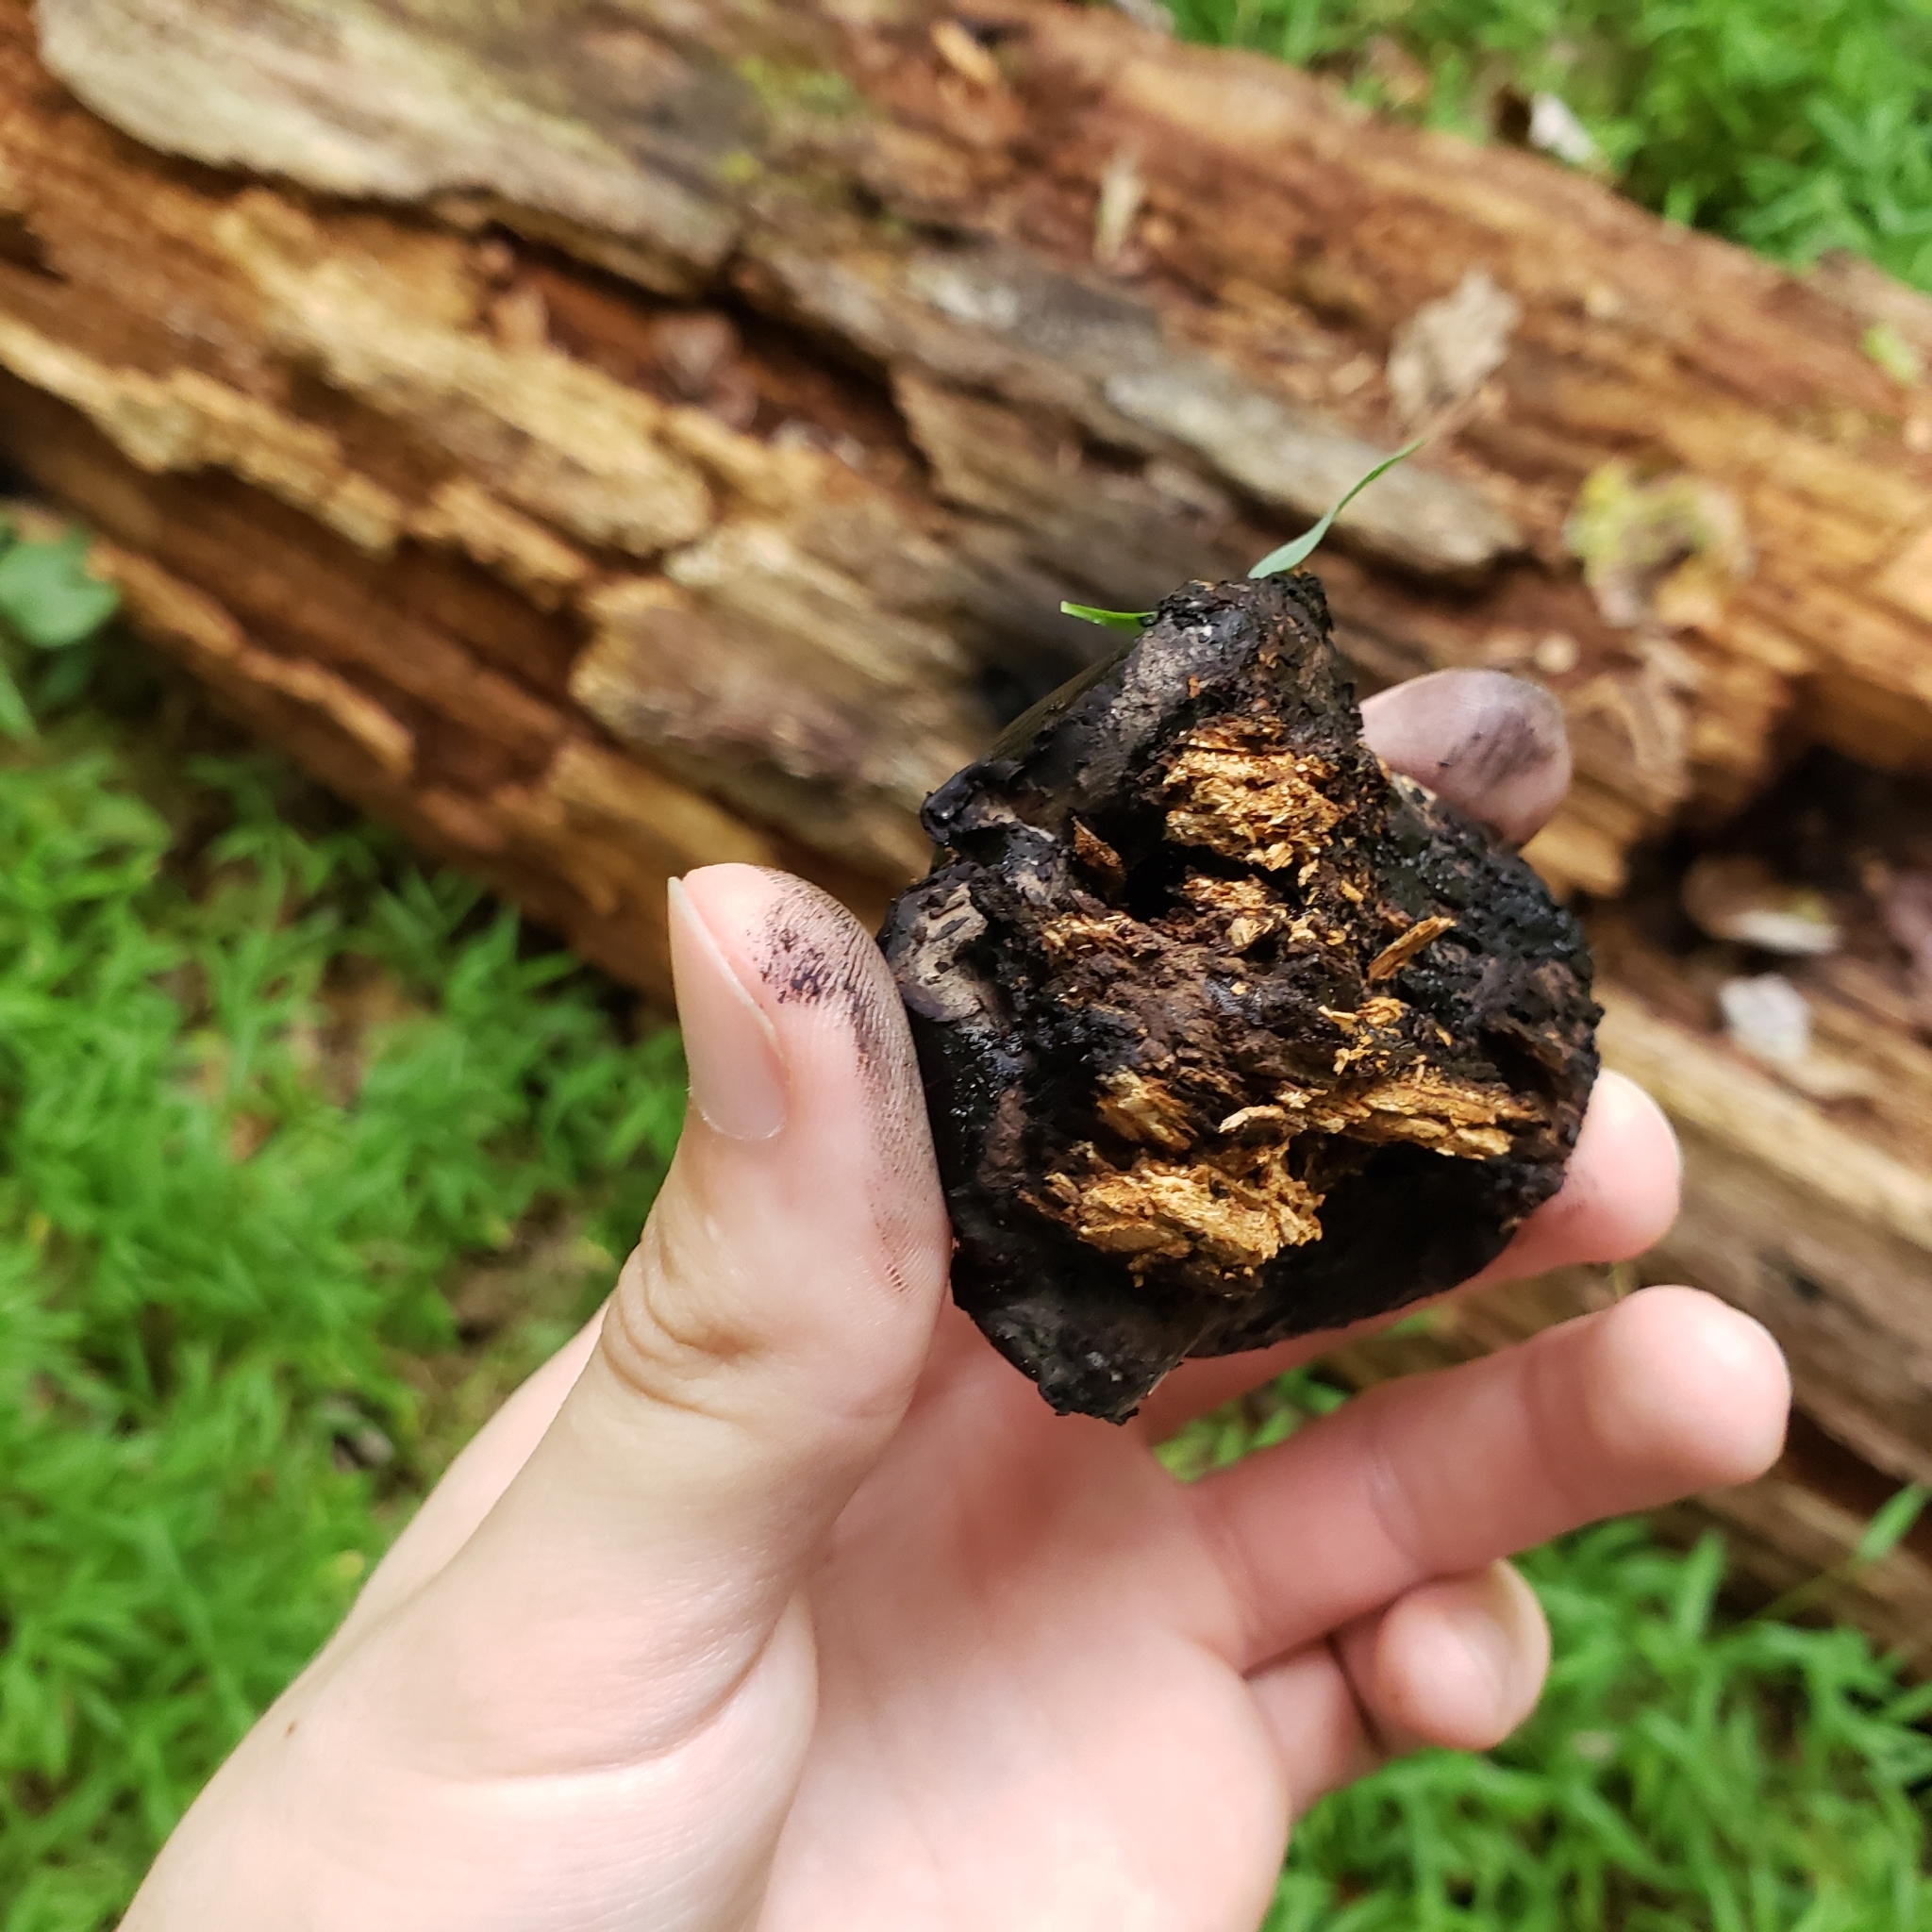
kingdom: Fungi
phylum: Ascomycota
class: Sordariomycetes
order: Boliniales
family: Boliniaceae
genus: Camarops
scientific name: Camarops petersii
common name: Dog's nose fungus
